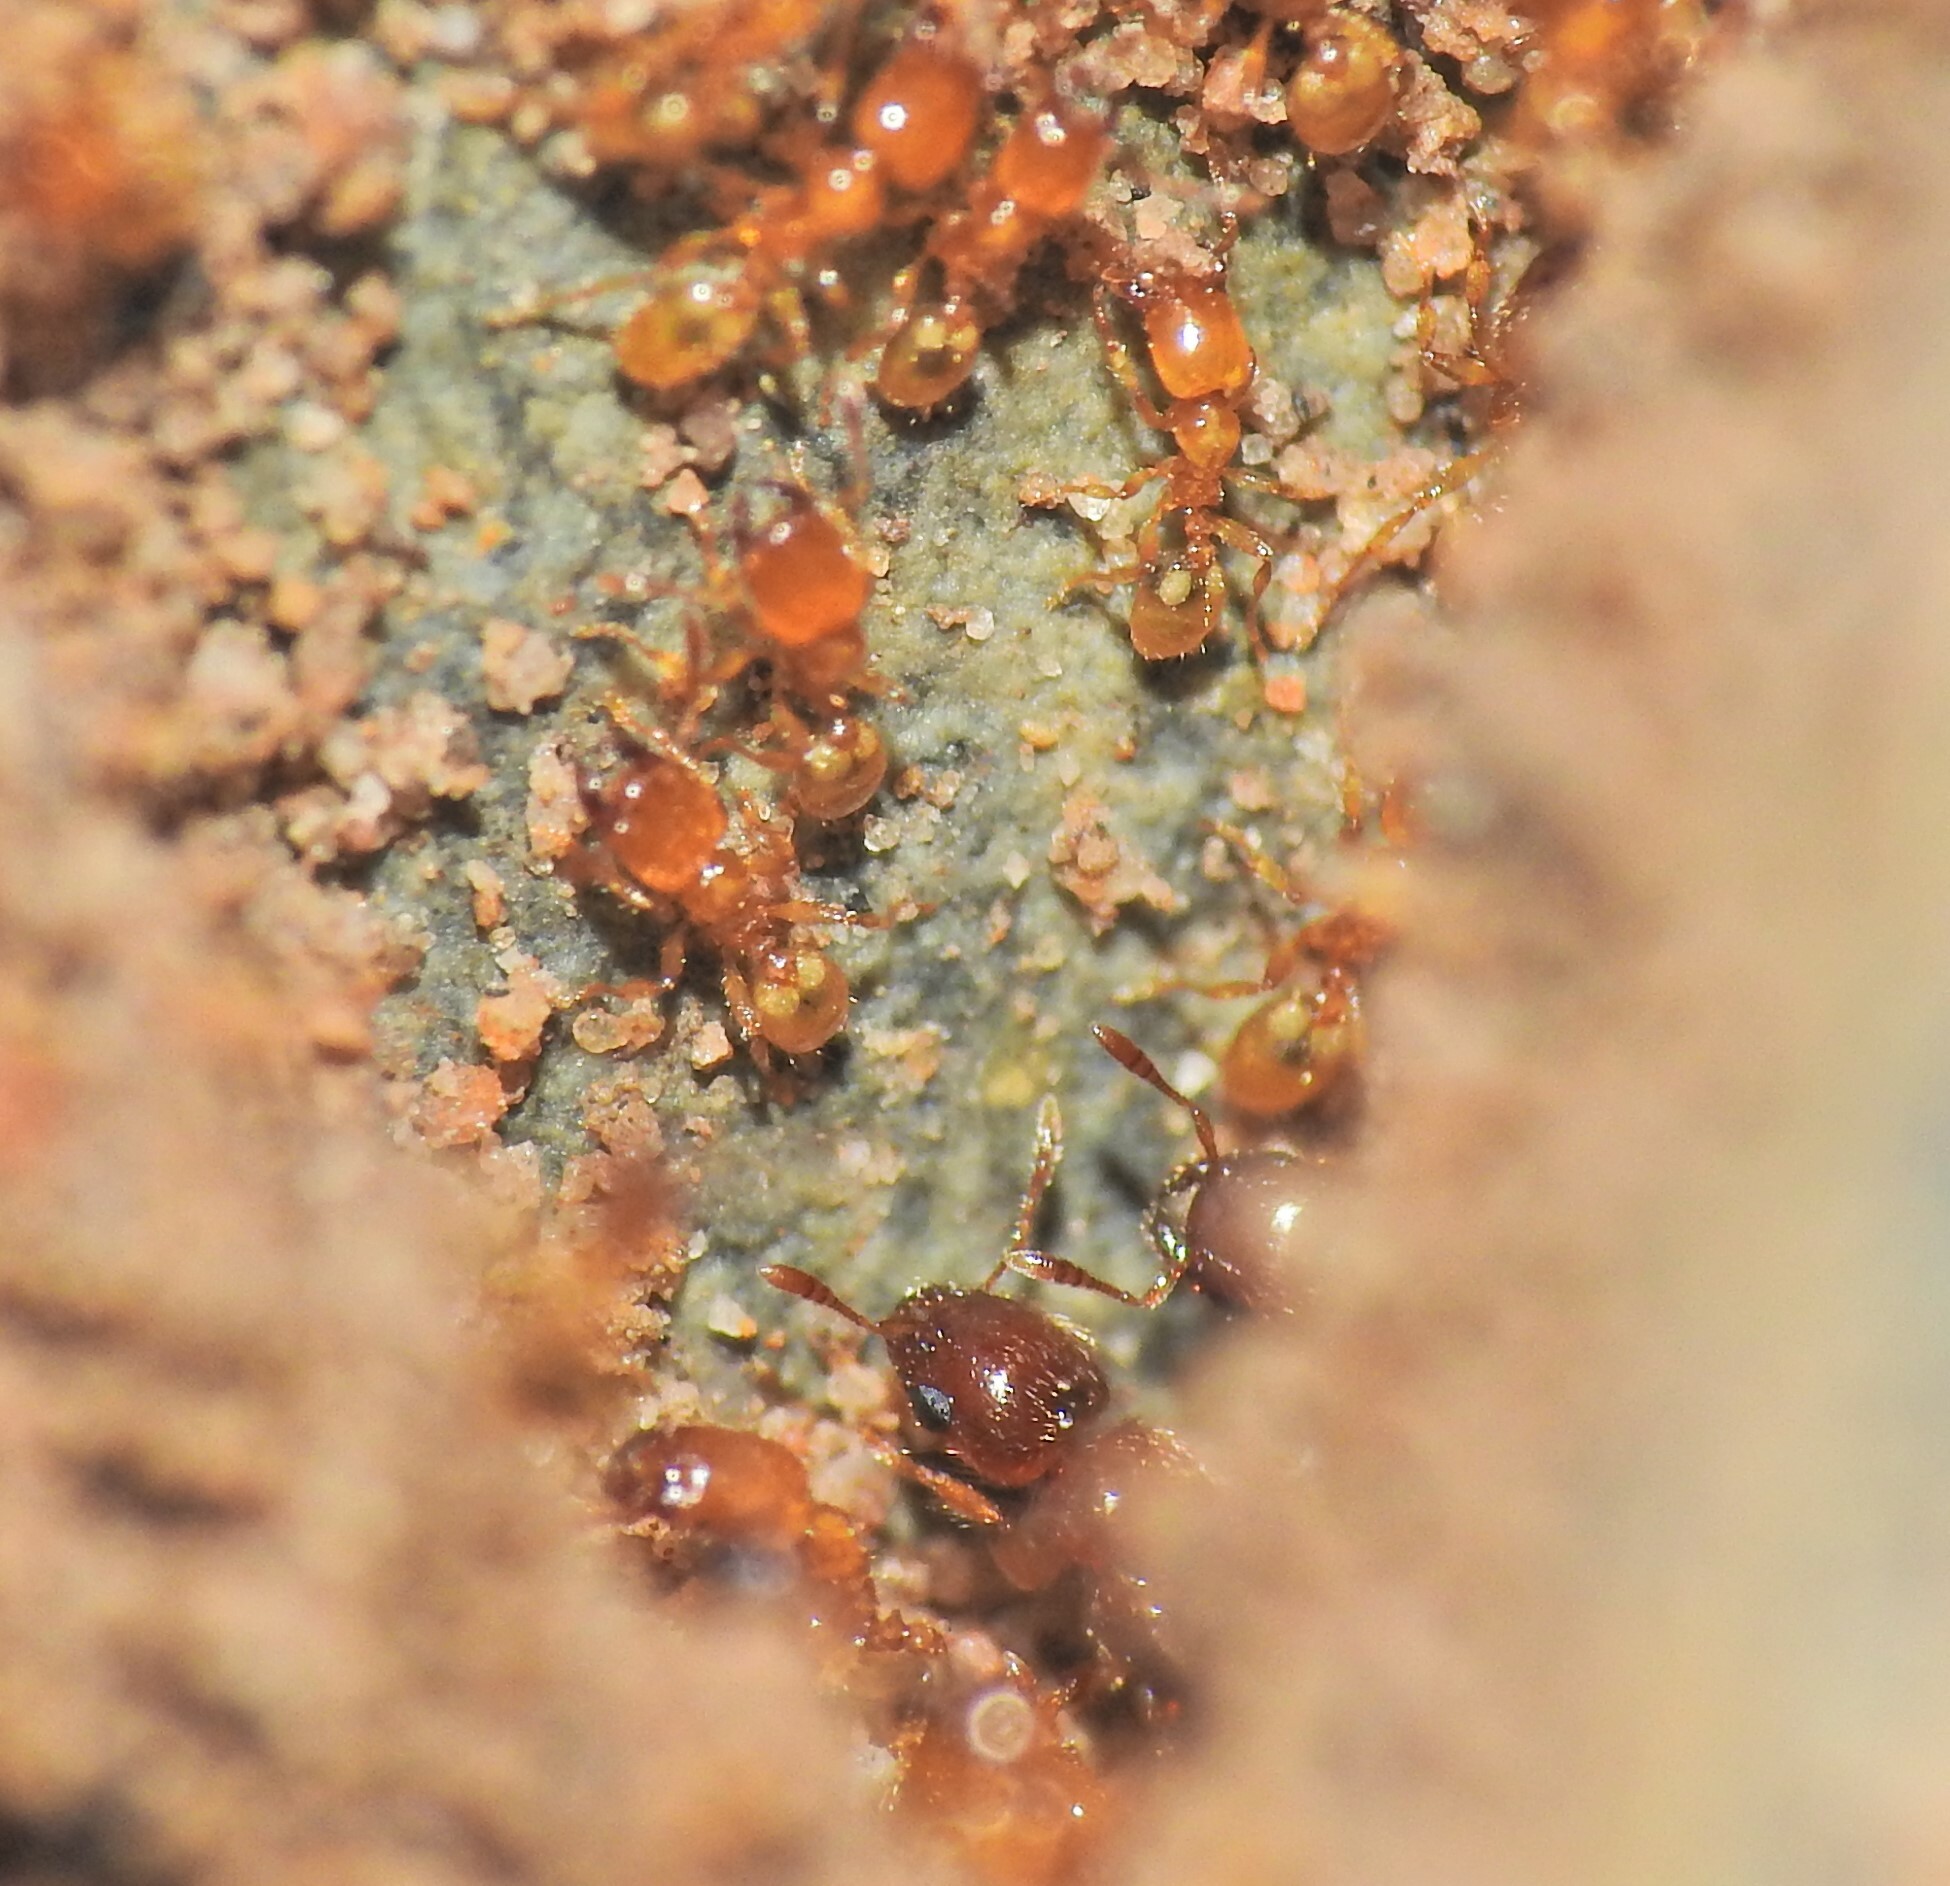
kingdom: Animalia
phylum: Arthropoda
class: Insecta
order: Hymenoptera
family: Formicidae
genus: Pheidole
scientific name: Pheidole
